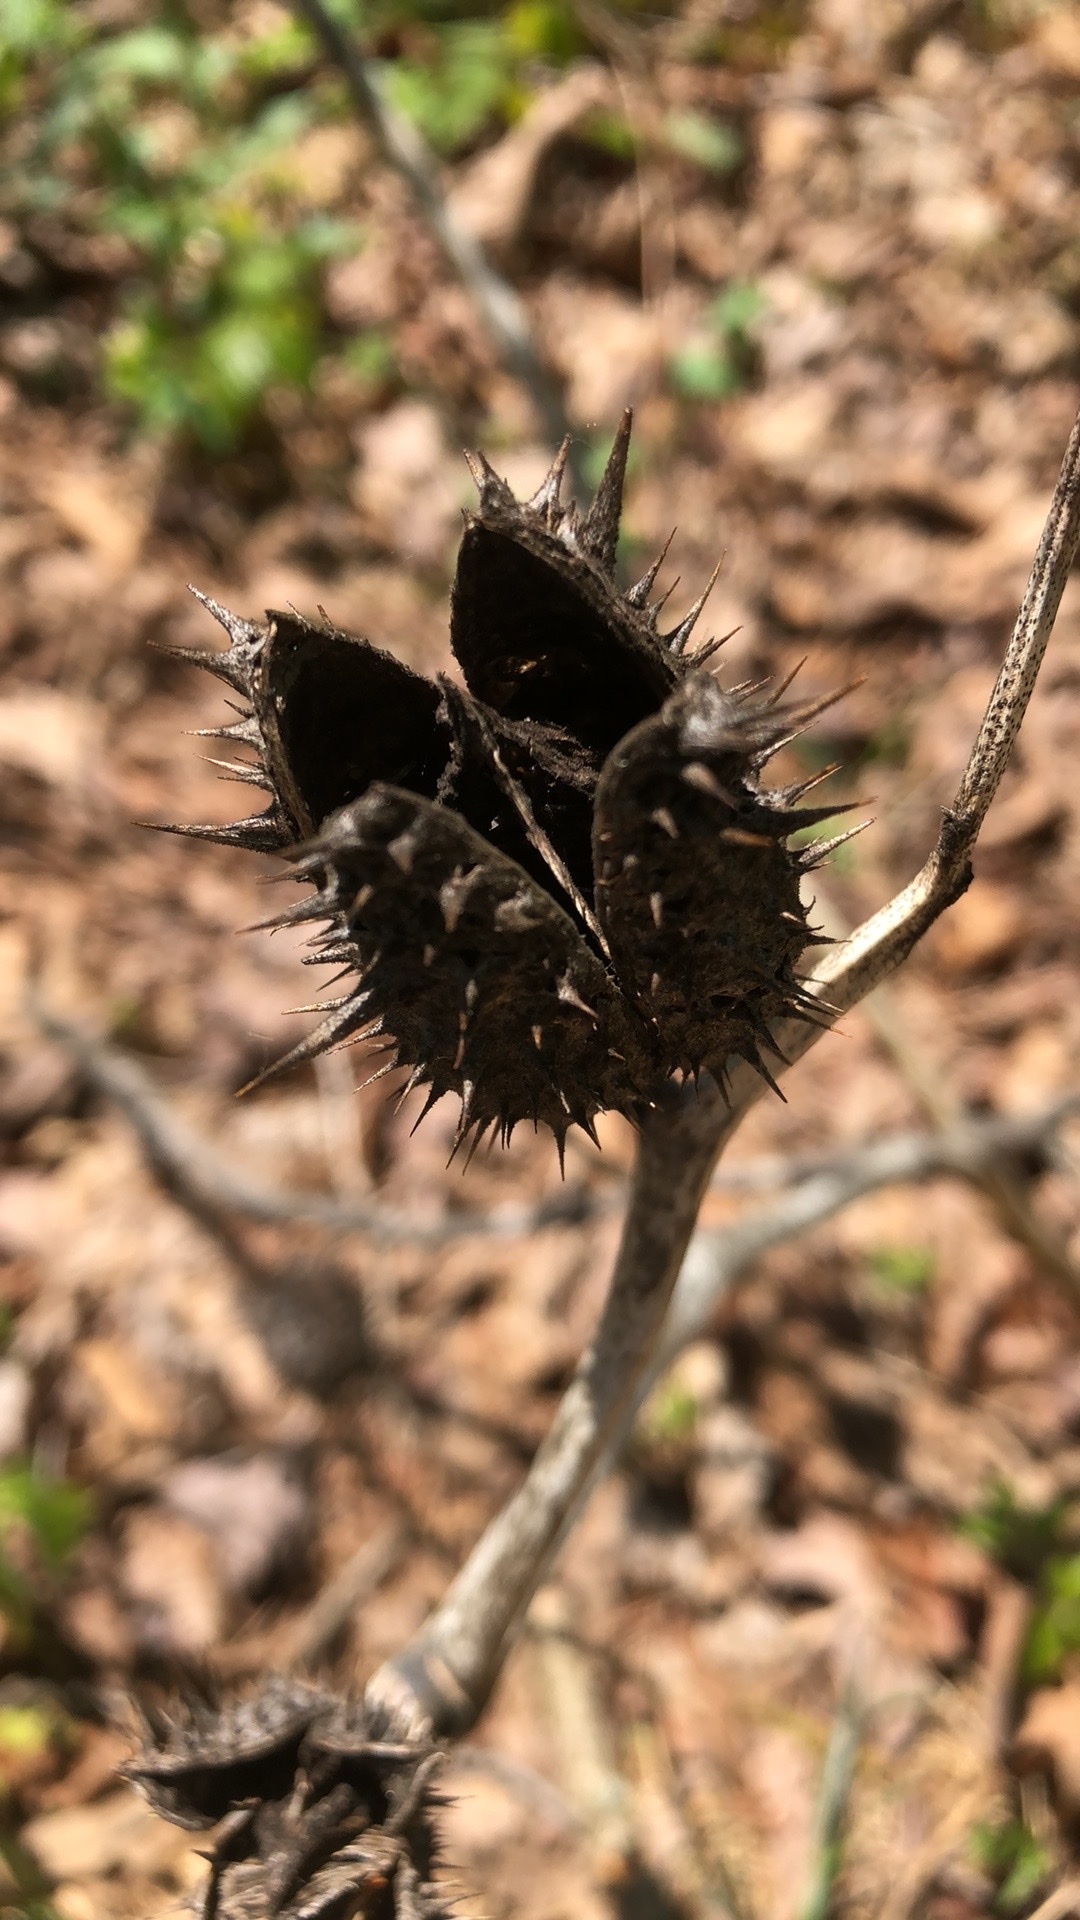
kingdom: Plantae
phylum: Tracheophyta
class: Magnoliopsida
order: Solanales
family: Solanaceae
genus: Datura
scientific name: Datura stramonium
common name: Thorn-apple
